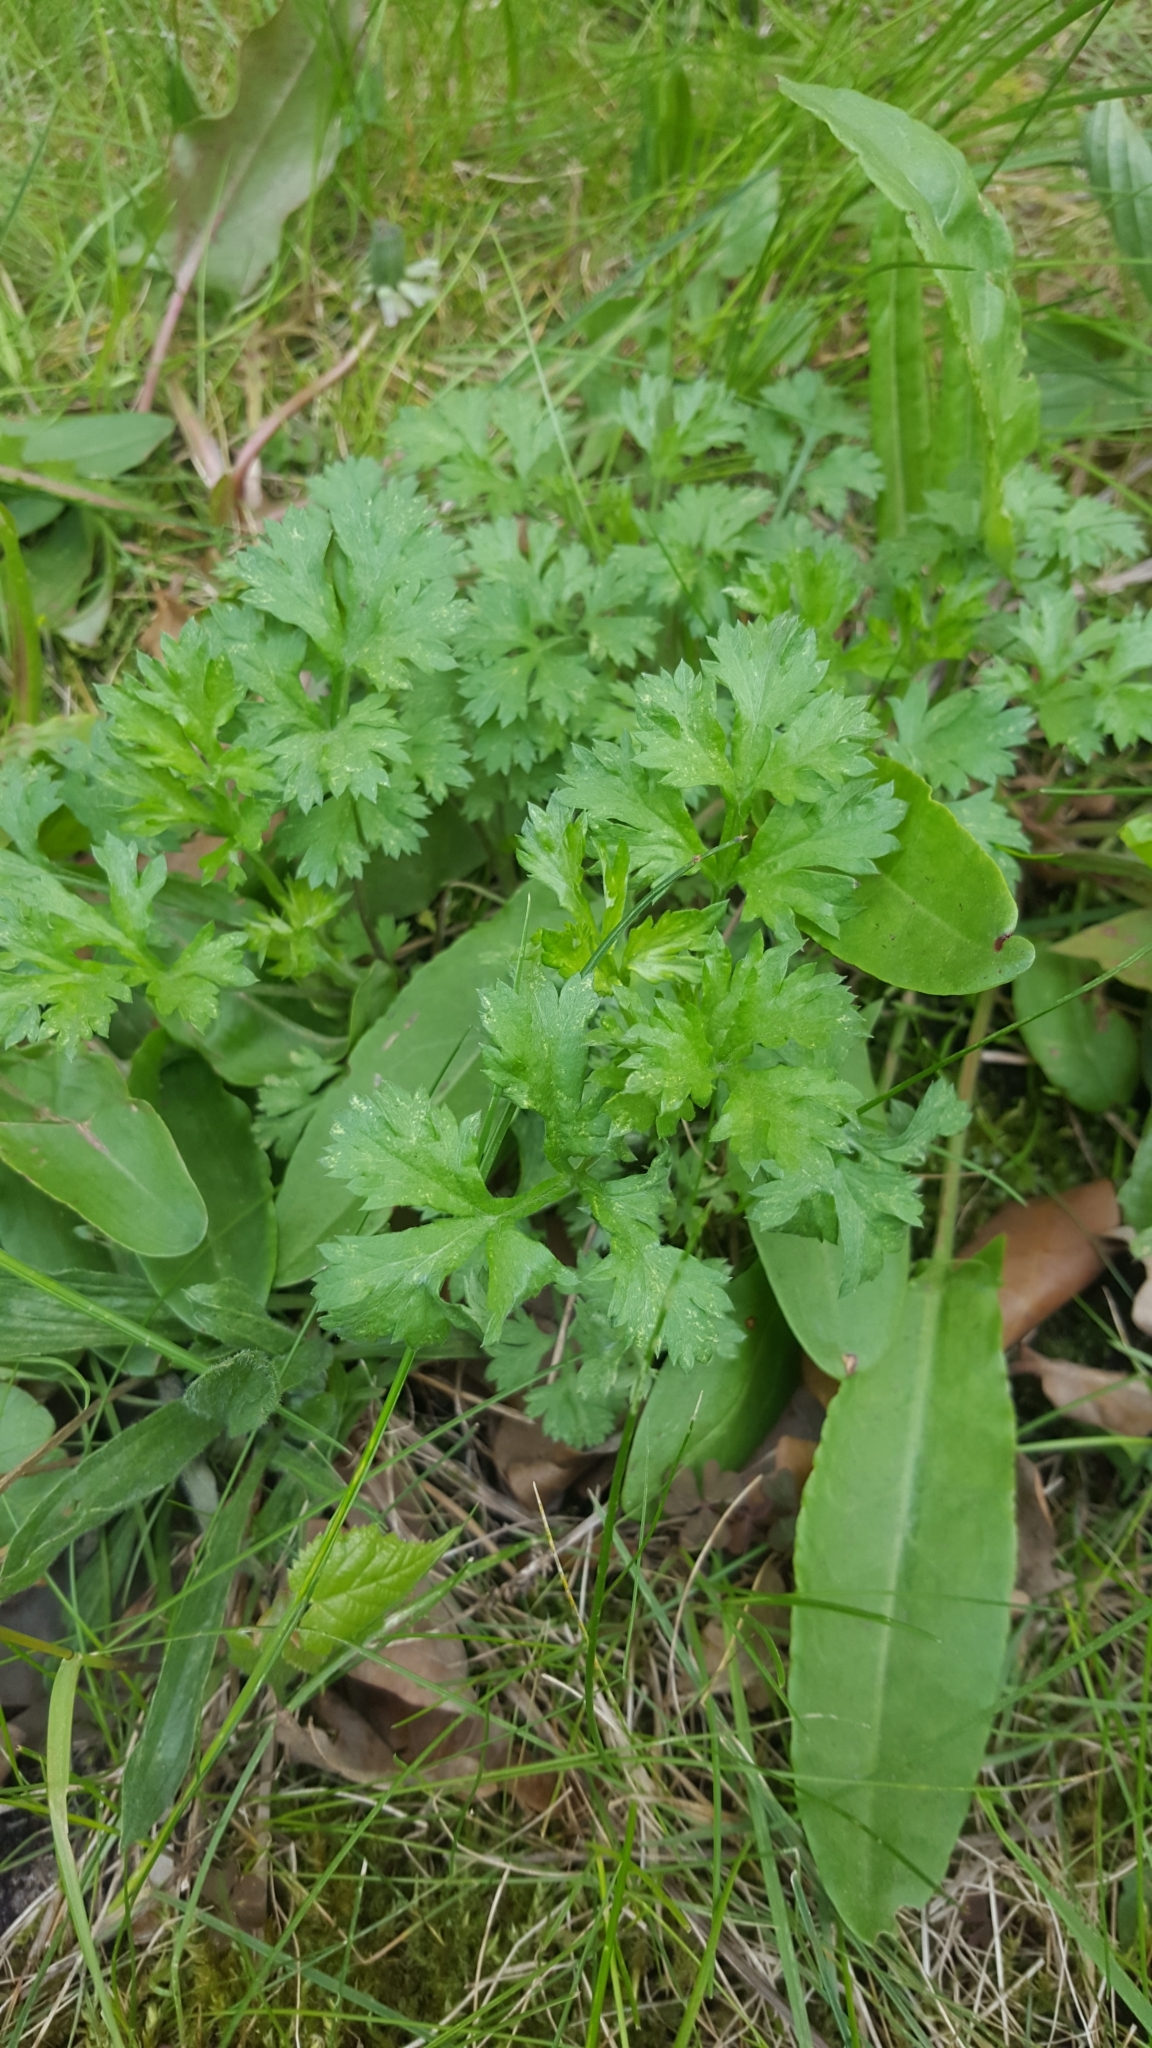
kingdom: Plantae
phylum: Tracheophyta
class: Magnoliopsida
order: Asterales
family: Asteraceae
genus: Artemisia
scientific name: Artemisia vulgaris
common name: Mugwort
